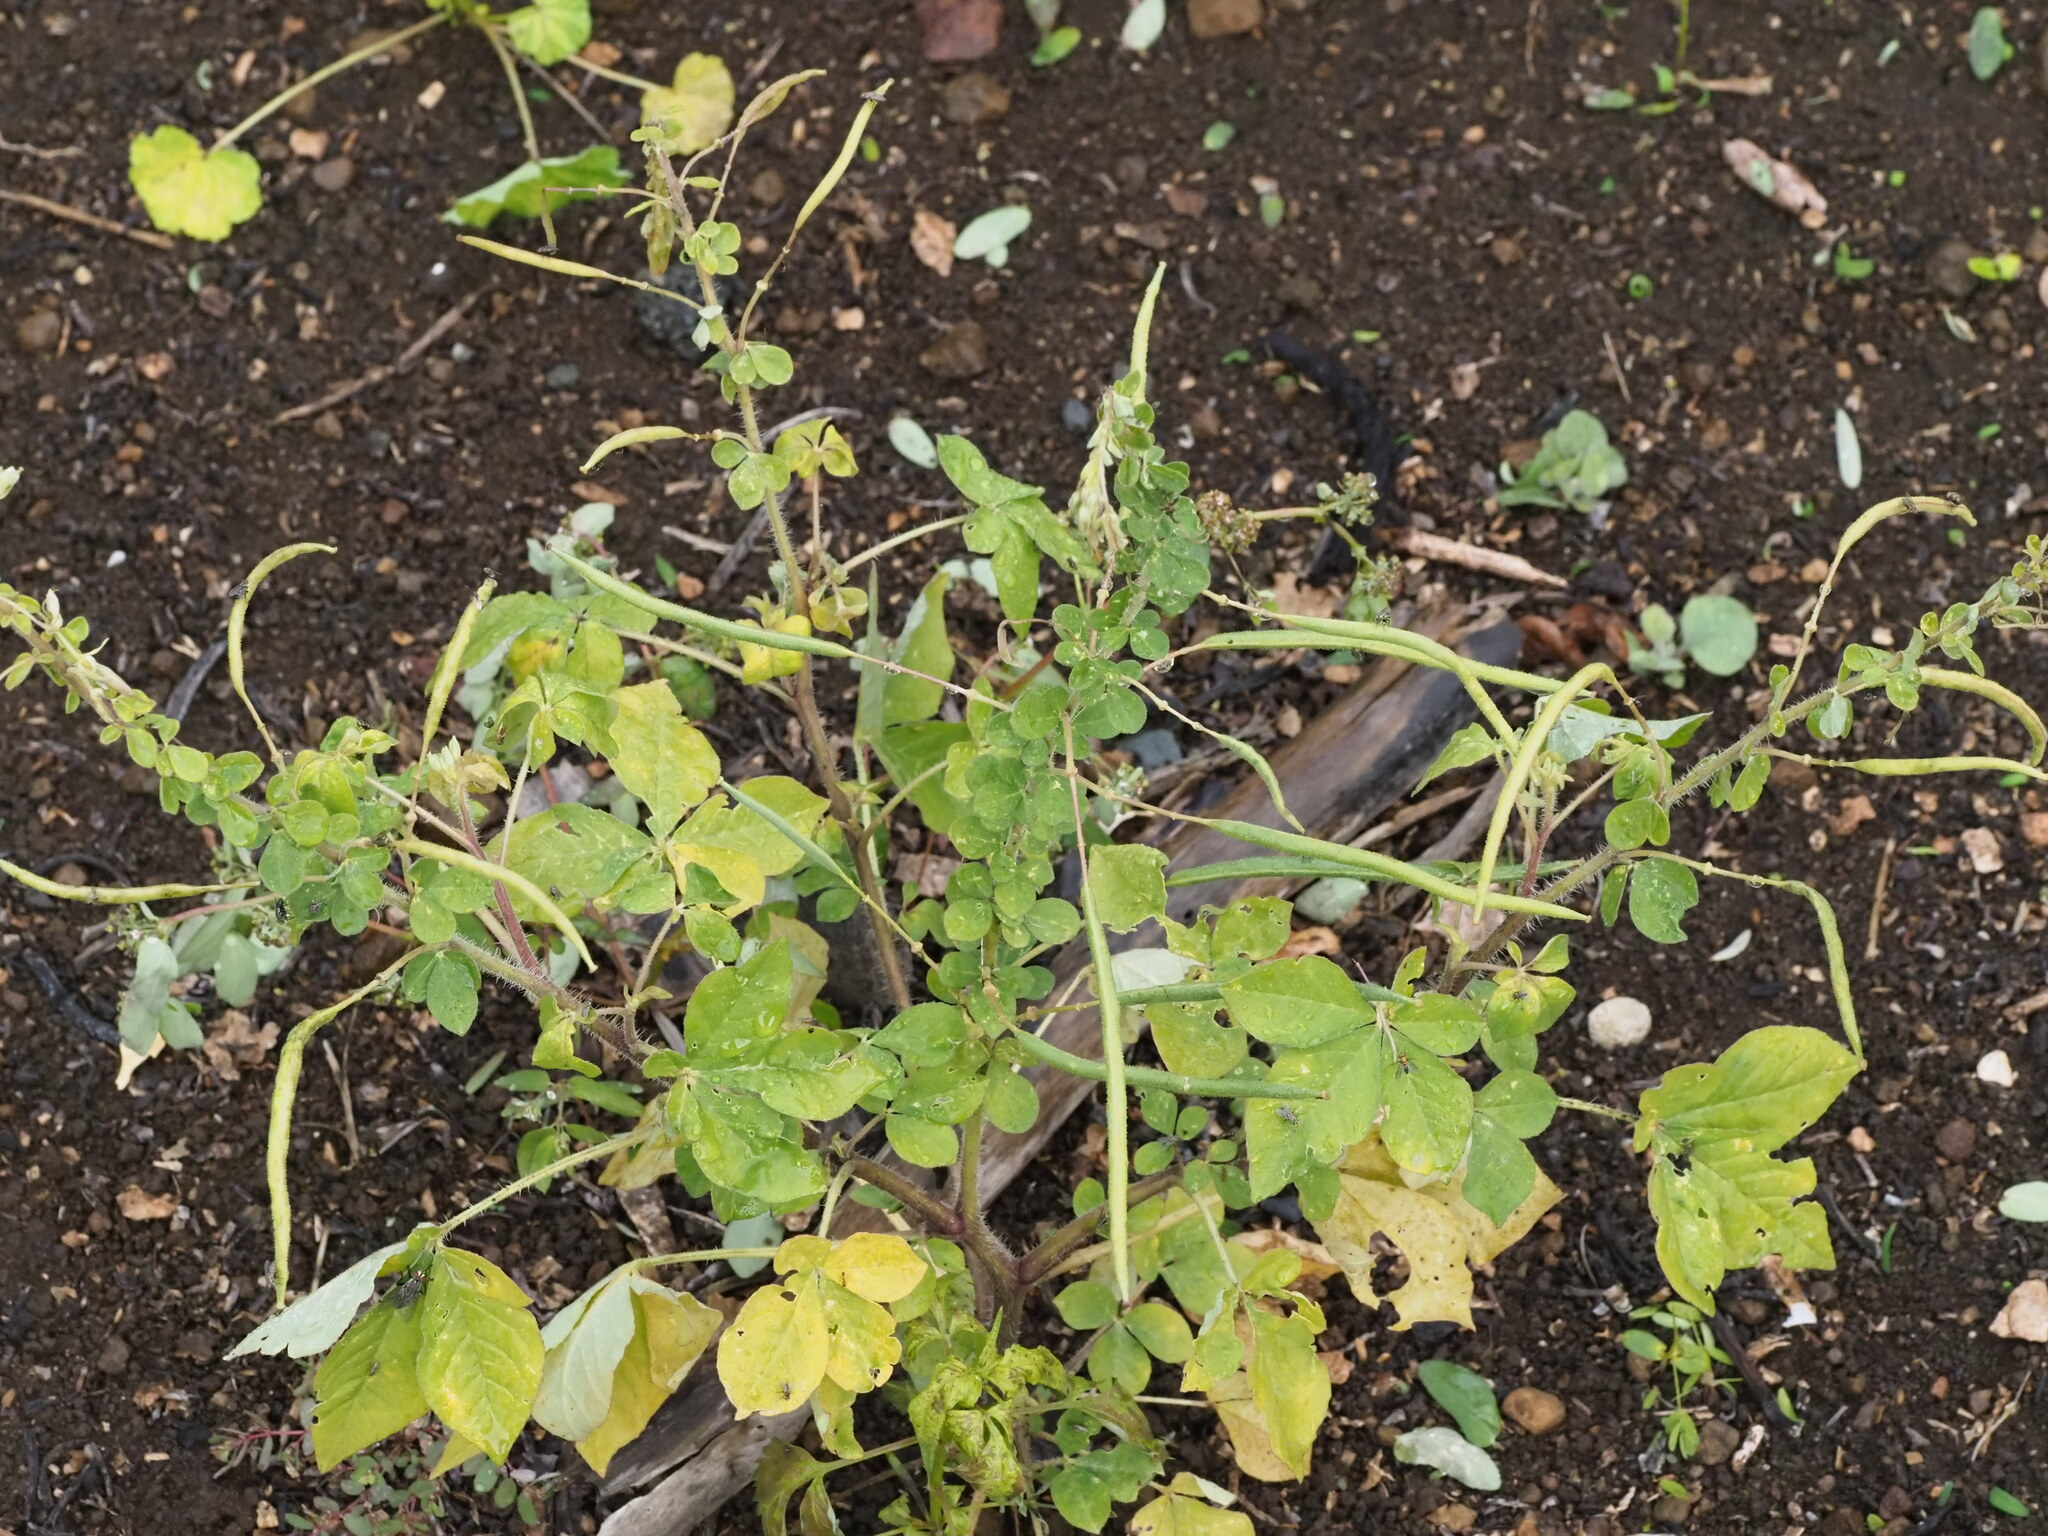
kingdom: Plantae
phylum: Tracheophyta
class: Magnoliopsida
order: Brassicales
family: Cleomaceae
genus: Gynandropsis
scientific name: Gynandropsis gynandra
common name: Spiderwisp
